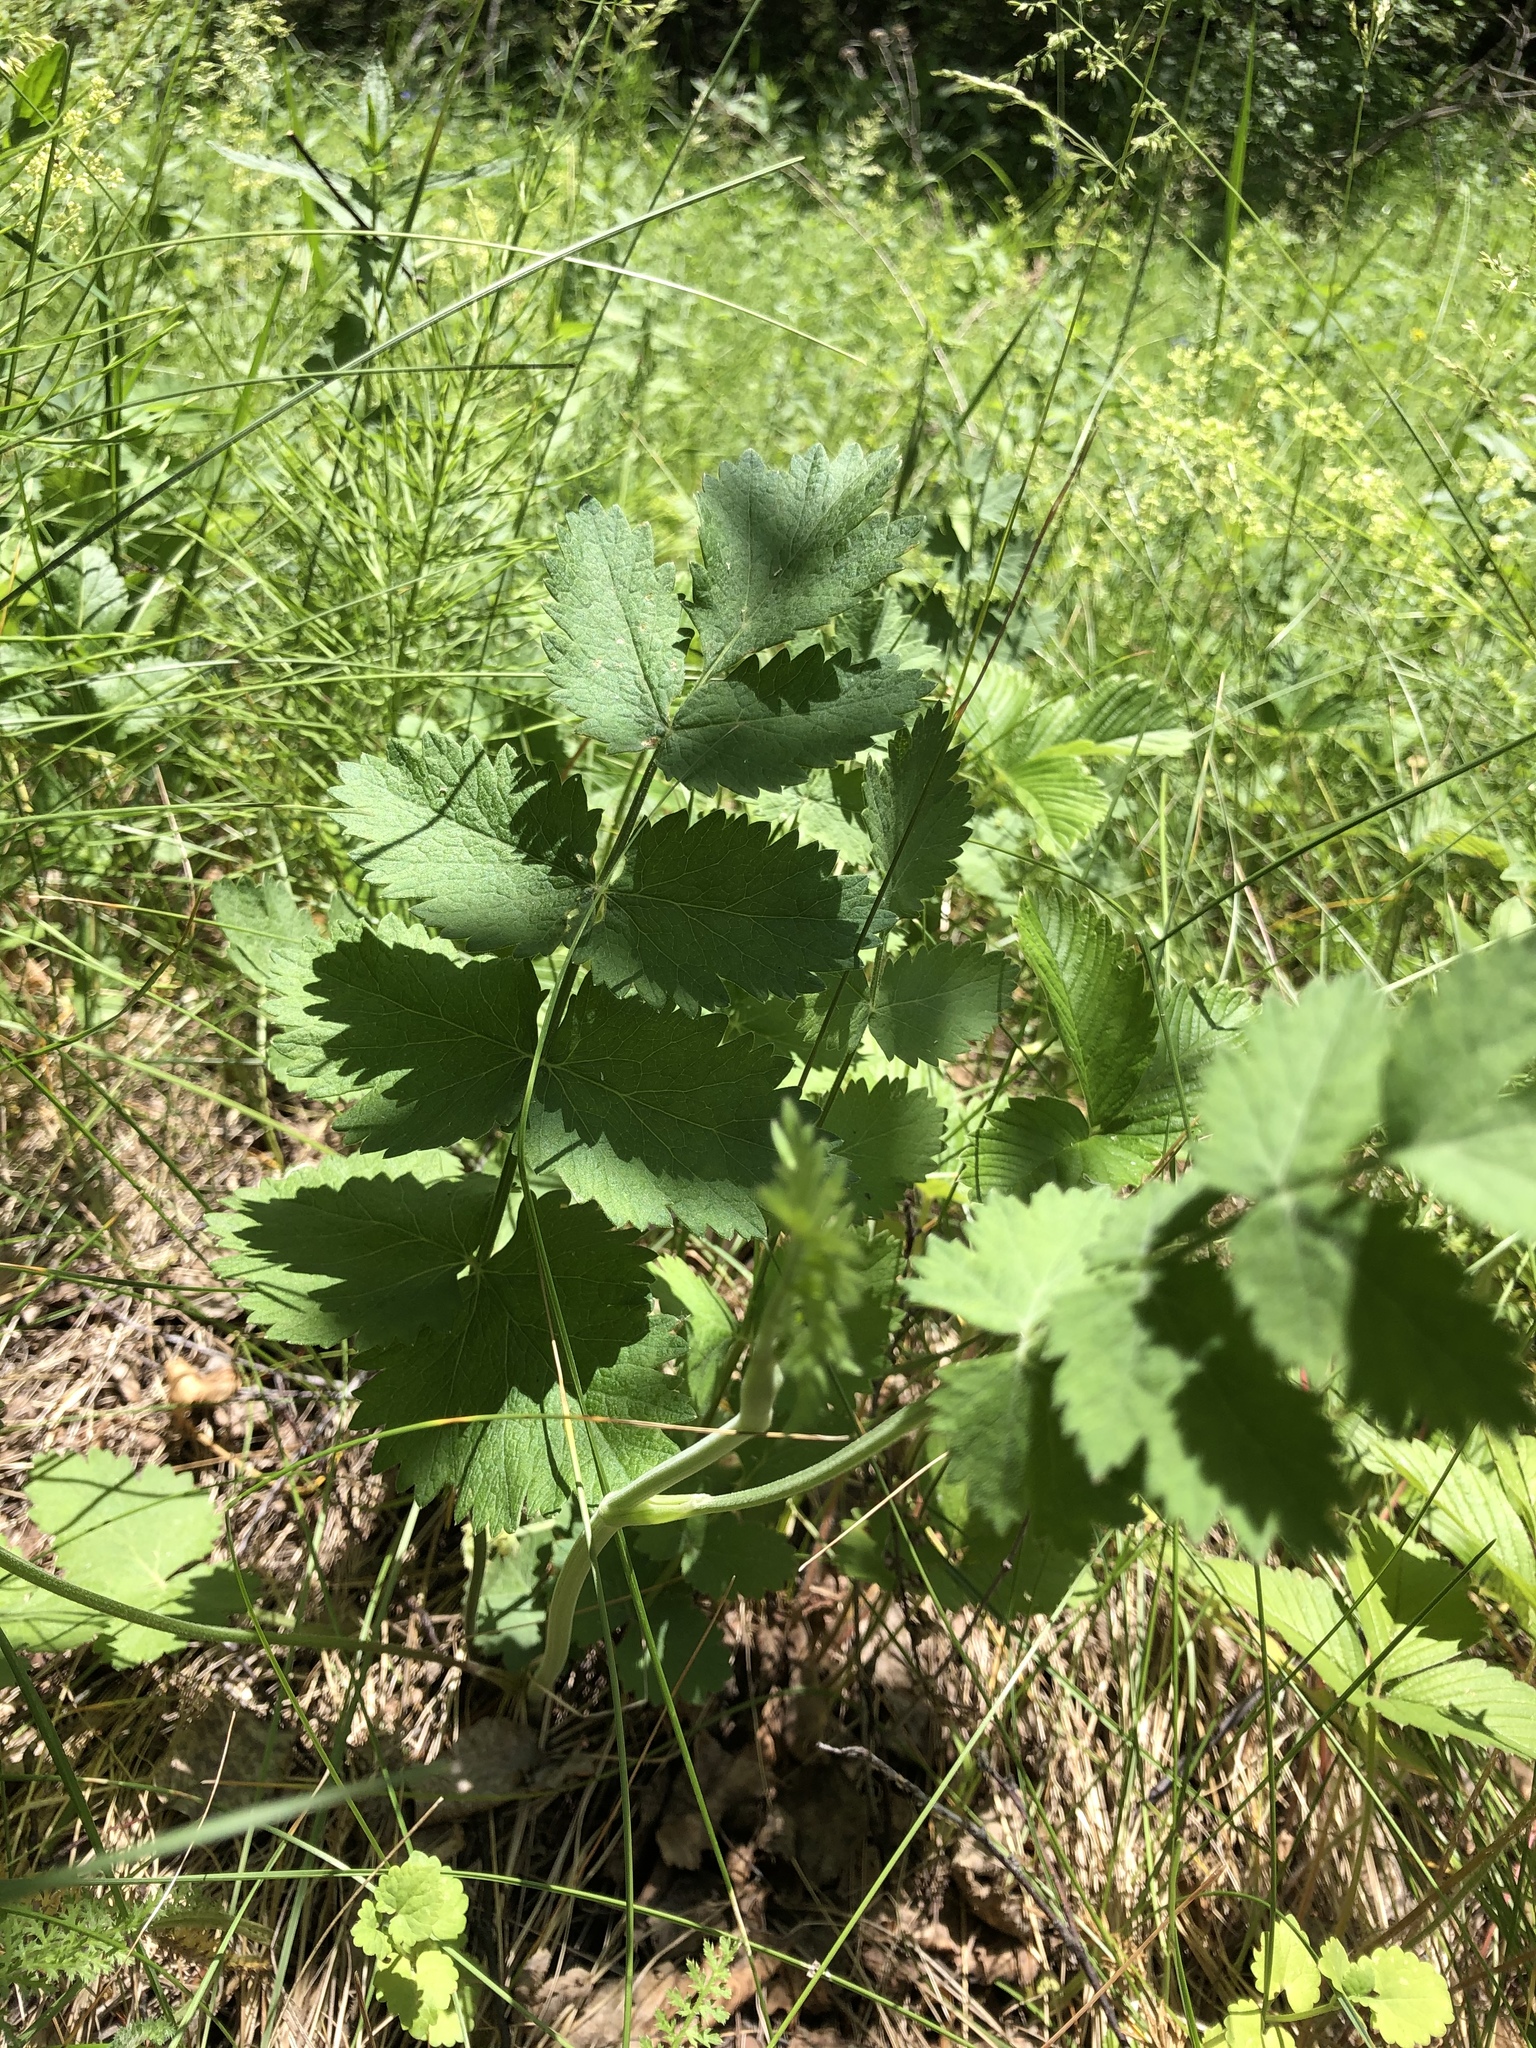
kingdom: Plantae
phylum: Tracheophyta
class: Magnoliopsida
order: Apiales
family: Apiaceae
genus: Pimpinella
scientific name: Pimpinella saxifraga
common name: Burnet-saxifrage
